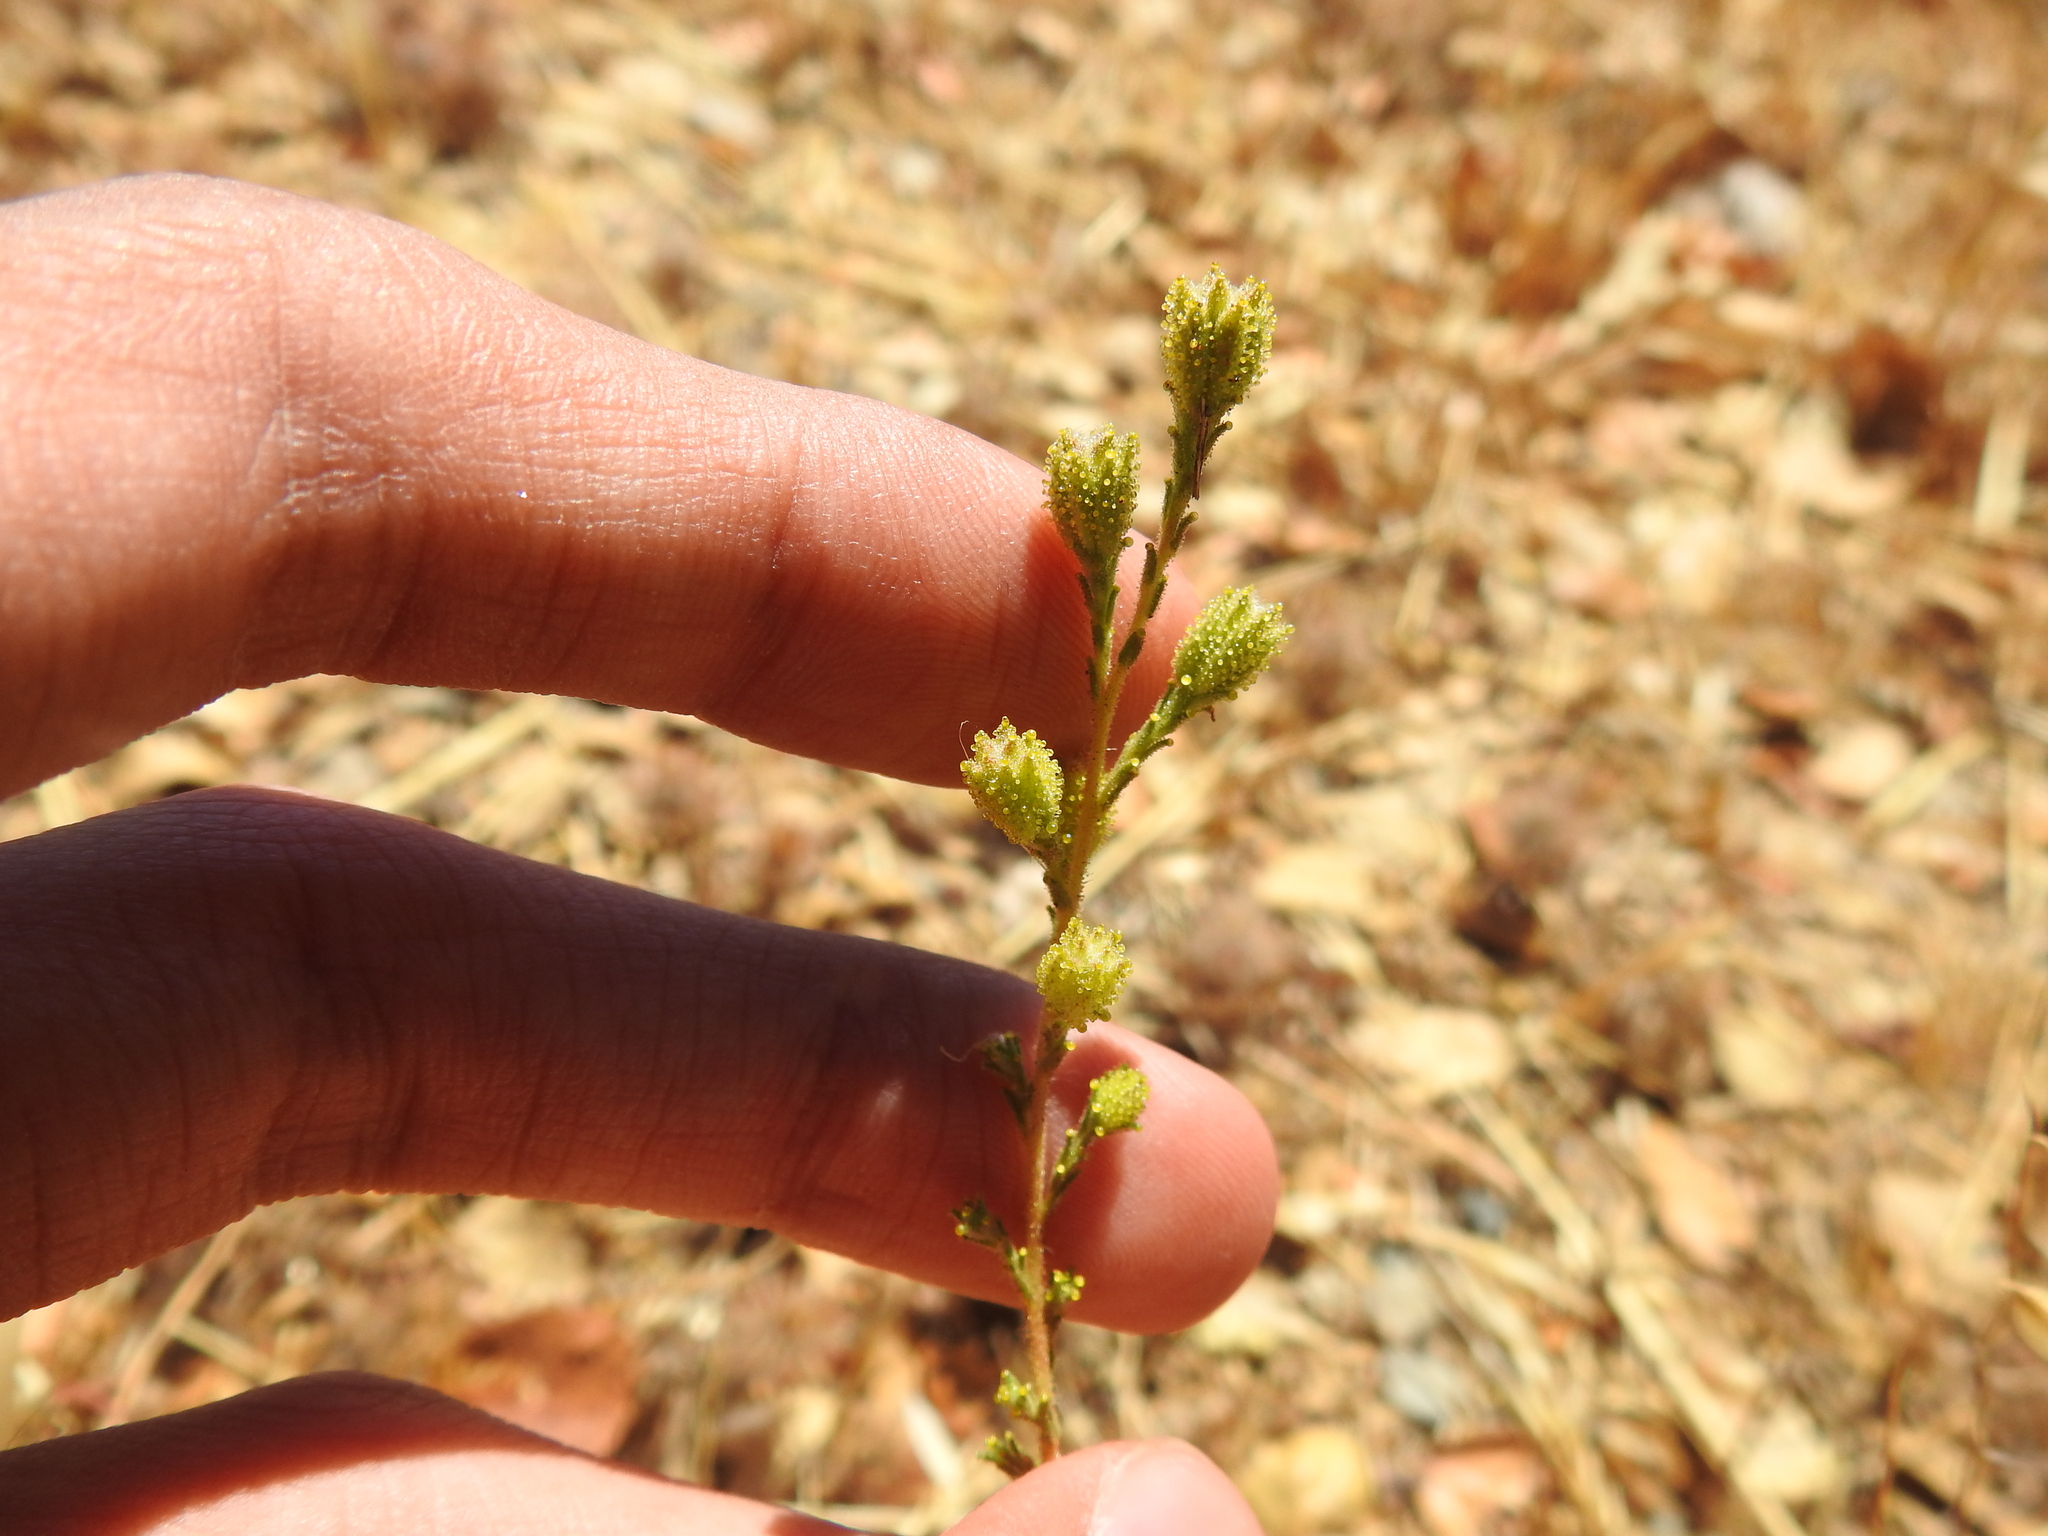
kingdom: Plantae
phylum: Tracheophyta
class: Magnoliopsida
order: Asterales
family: Asteraceae
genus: Holocarpha
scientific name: Holocarpha heermannii
